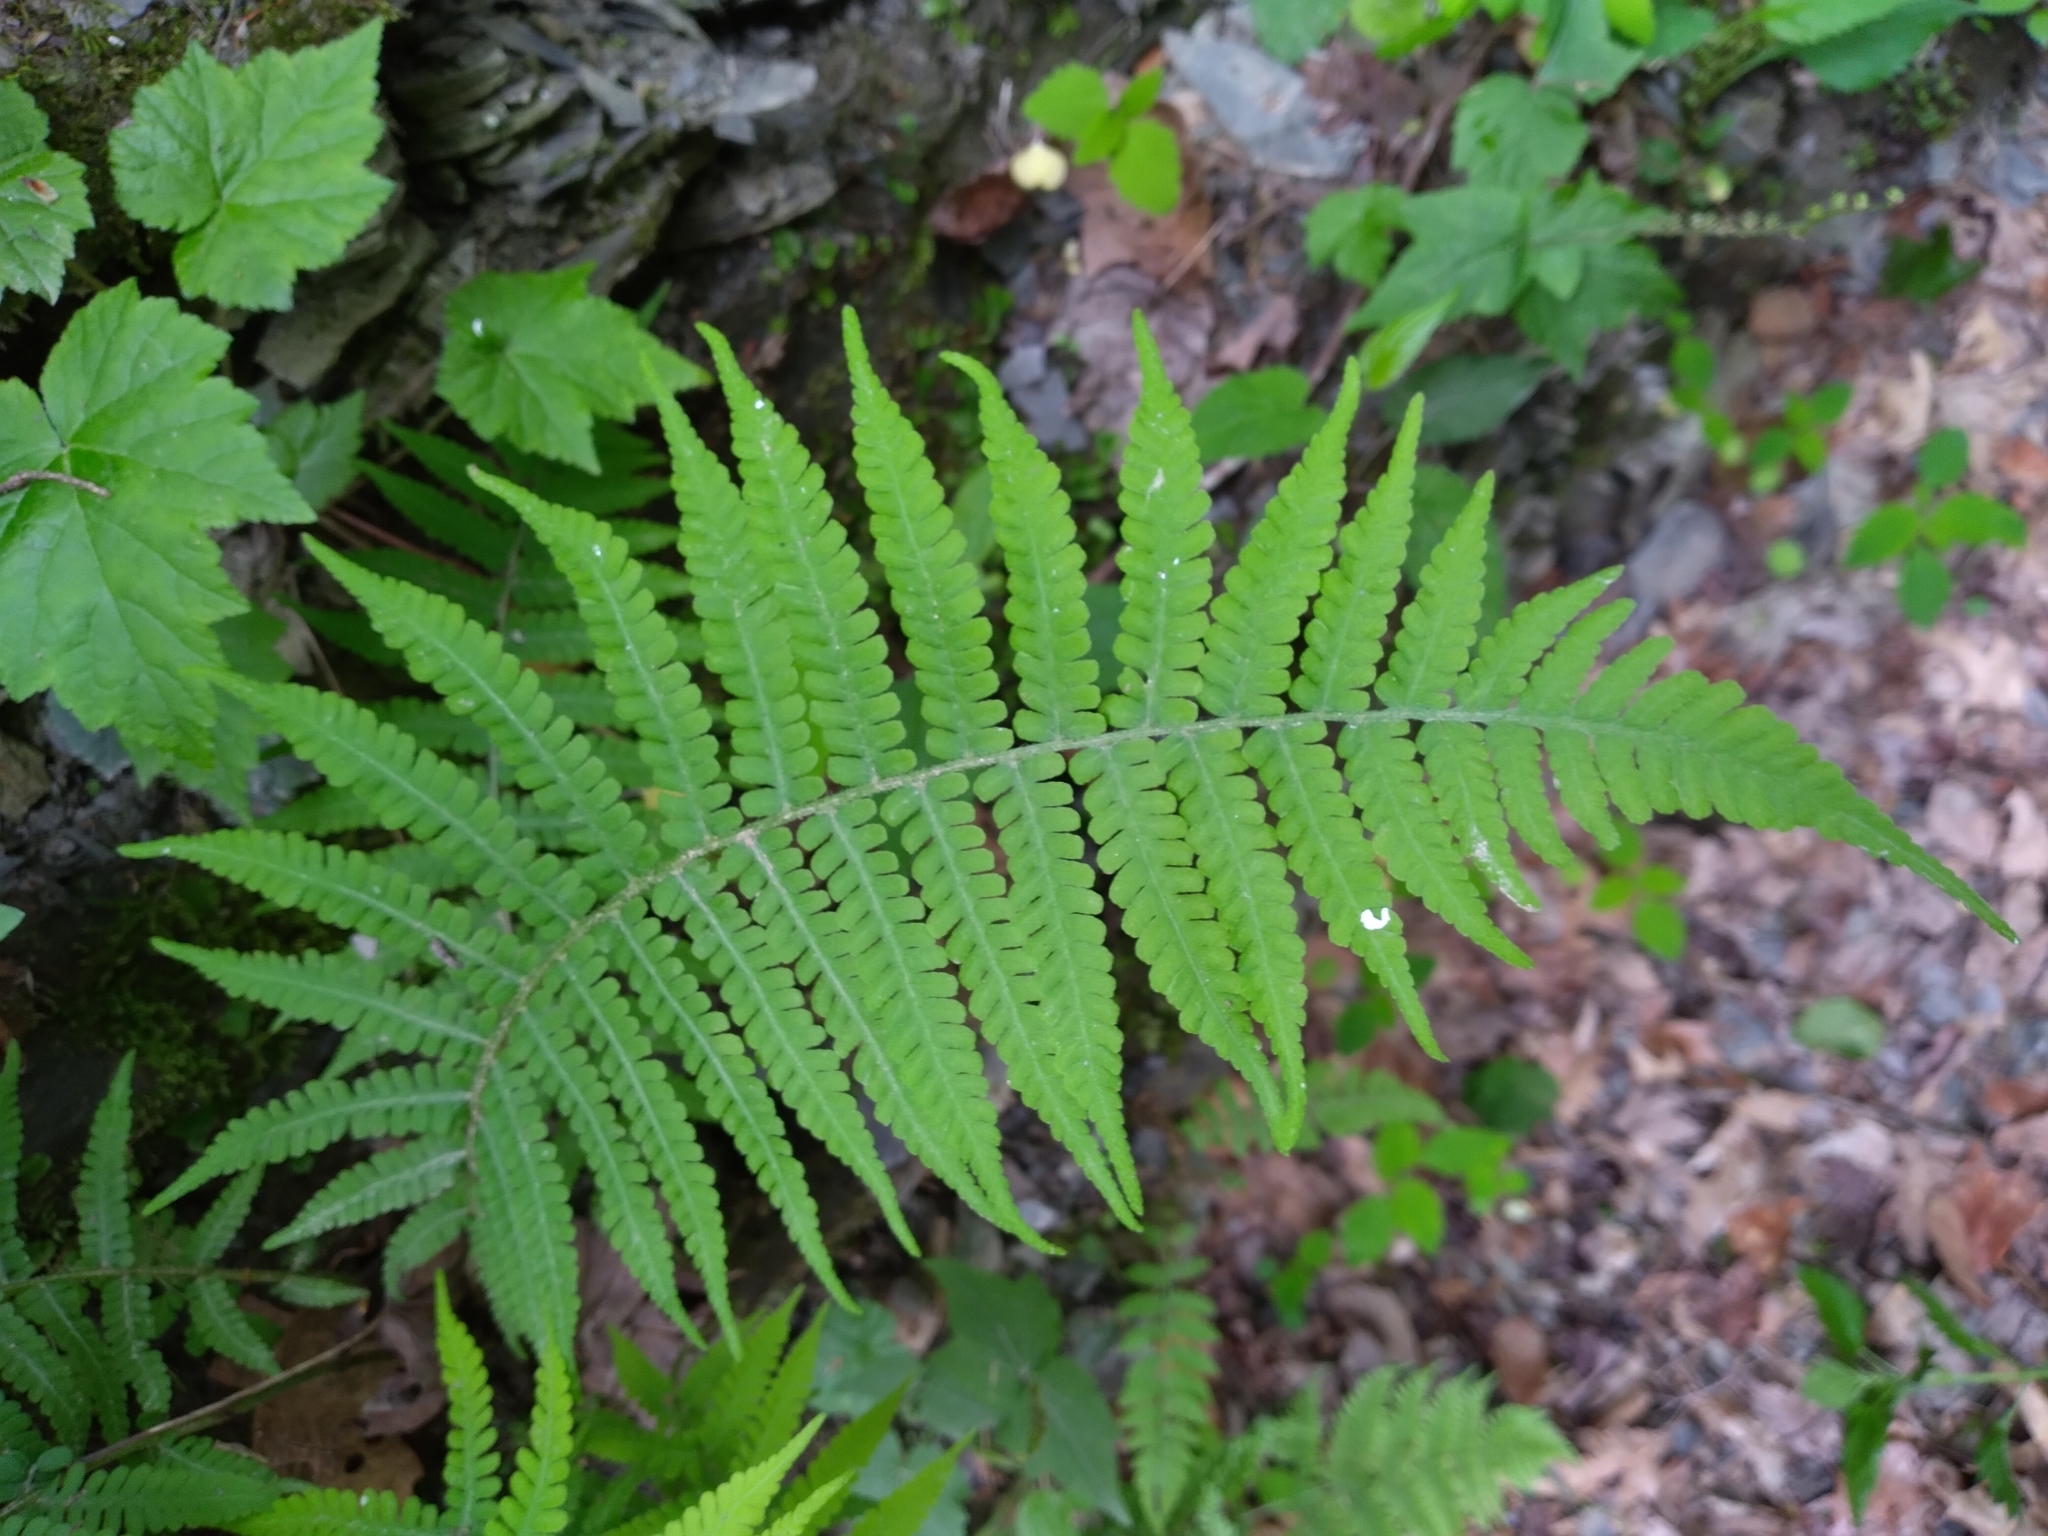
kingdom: Plantae
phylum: Tracheophyta
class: Polypodiopsida
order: Polypodiales
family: Athyriaceae
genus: Deparia
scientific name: Deparia acrostichoides
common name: Silver false spleenwort
